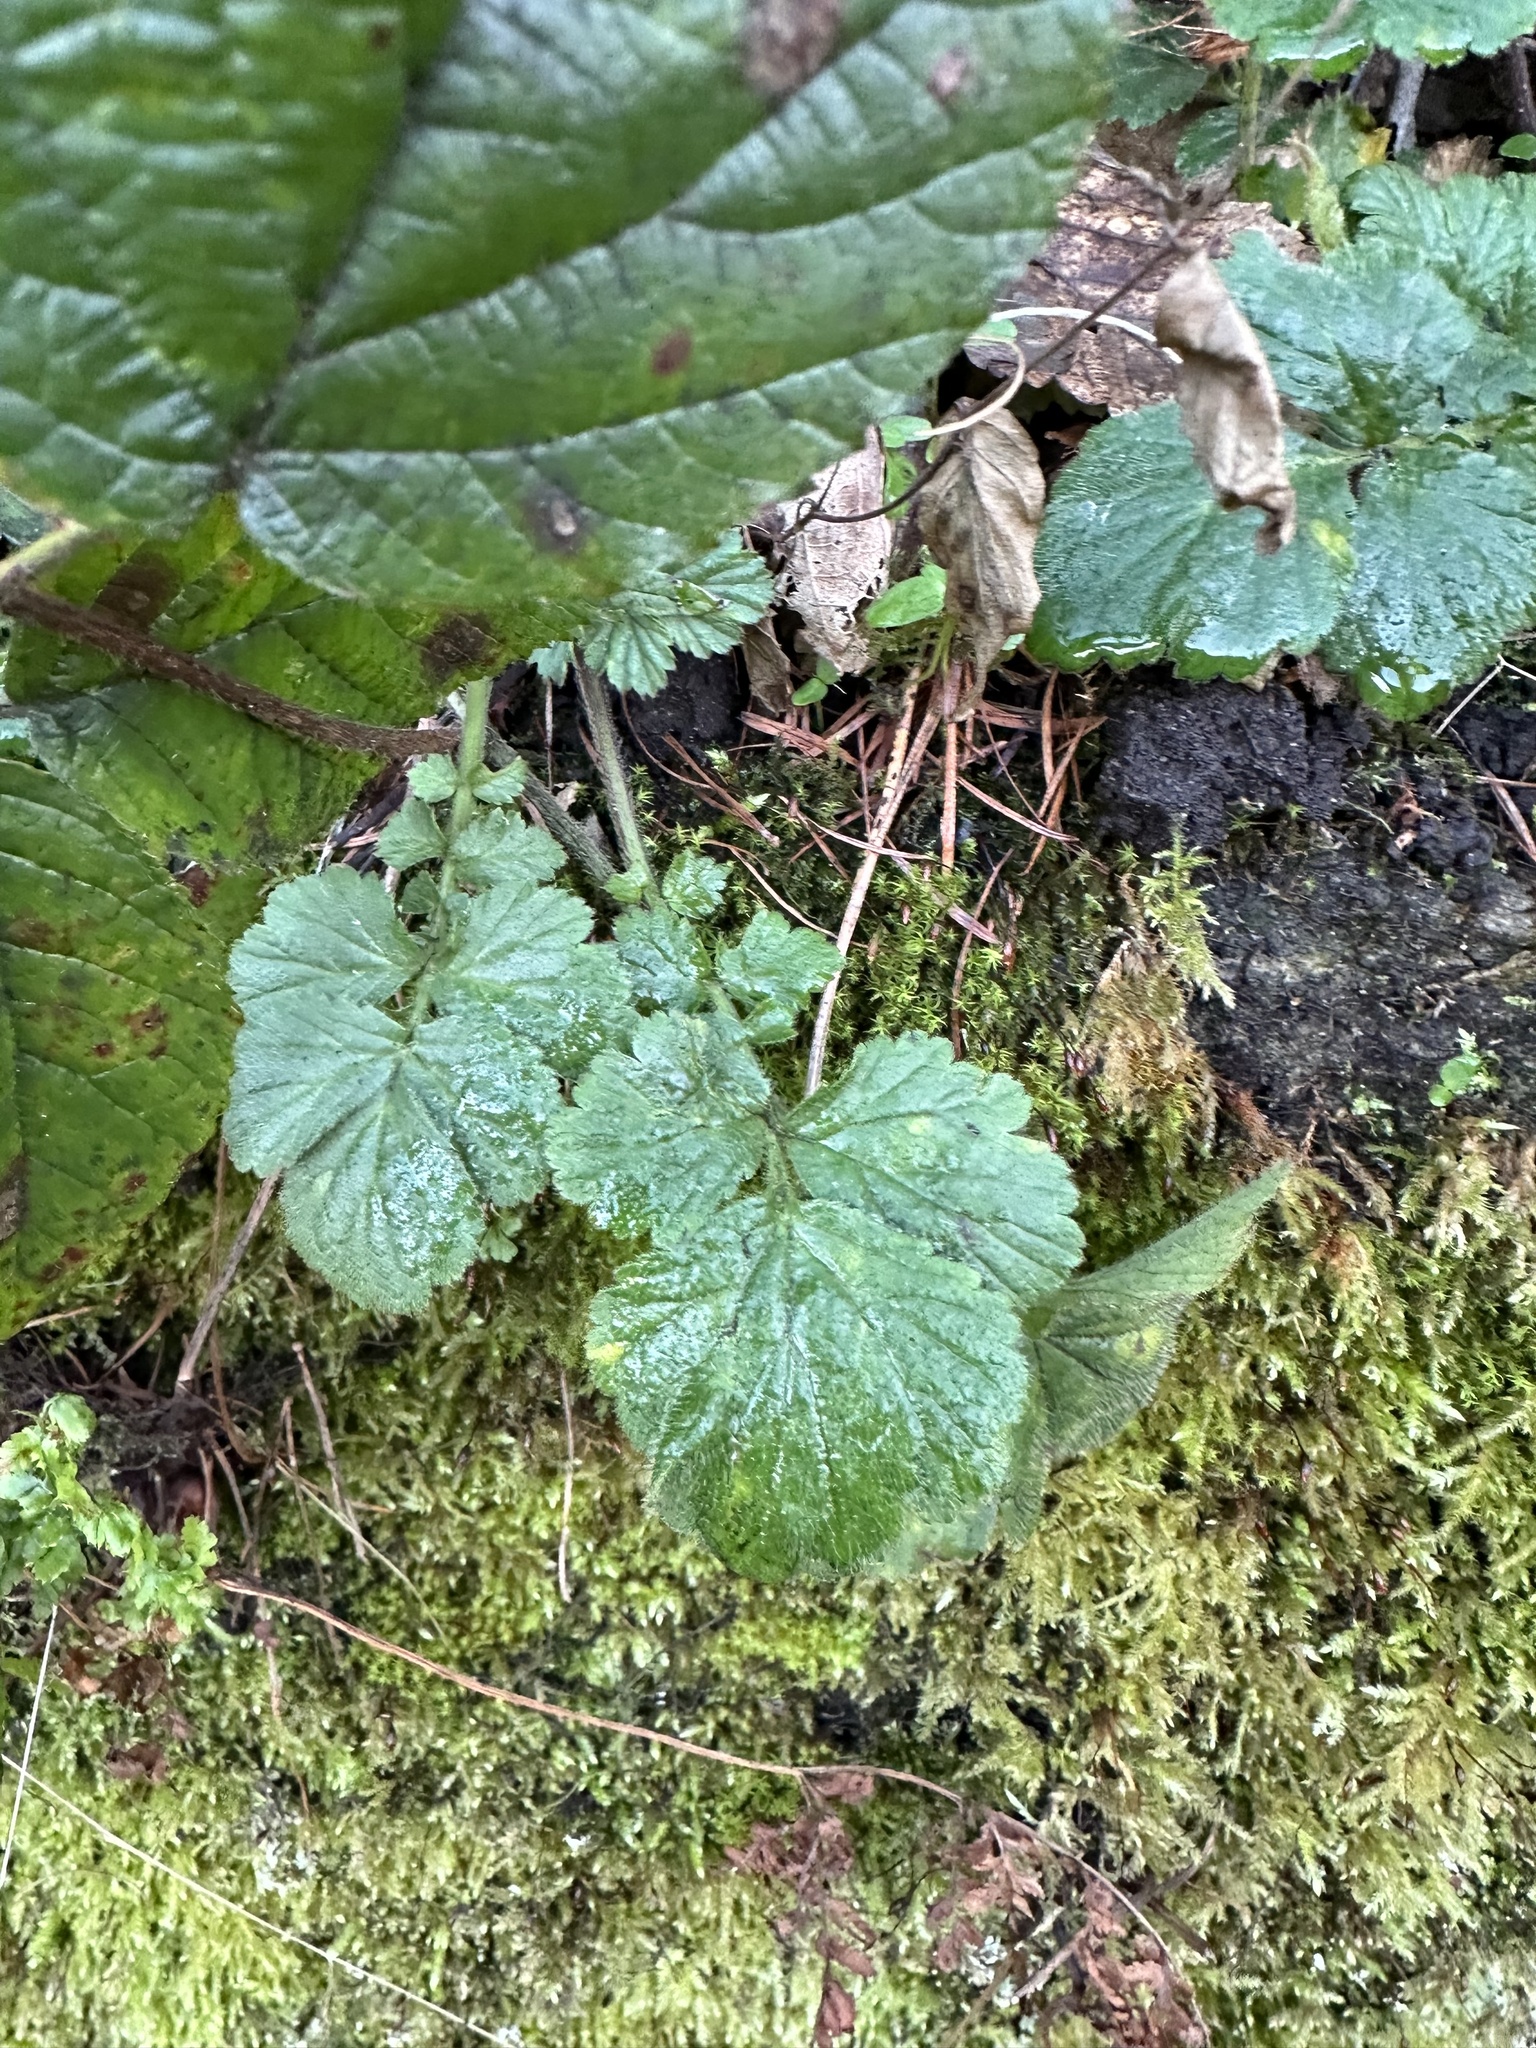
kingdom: Plantae
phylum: Tracheophyta
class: Magnoliopsida
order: Rosales
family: Rosaceae
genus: Geum
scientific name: Geum urbanum
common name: Wood avens
